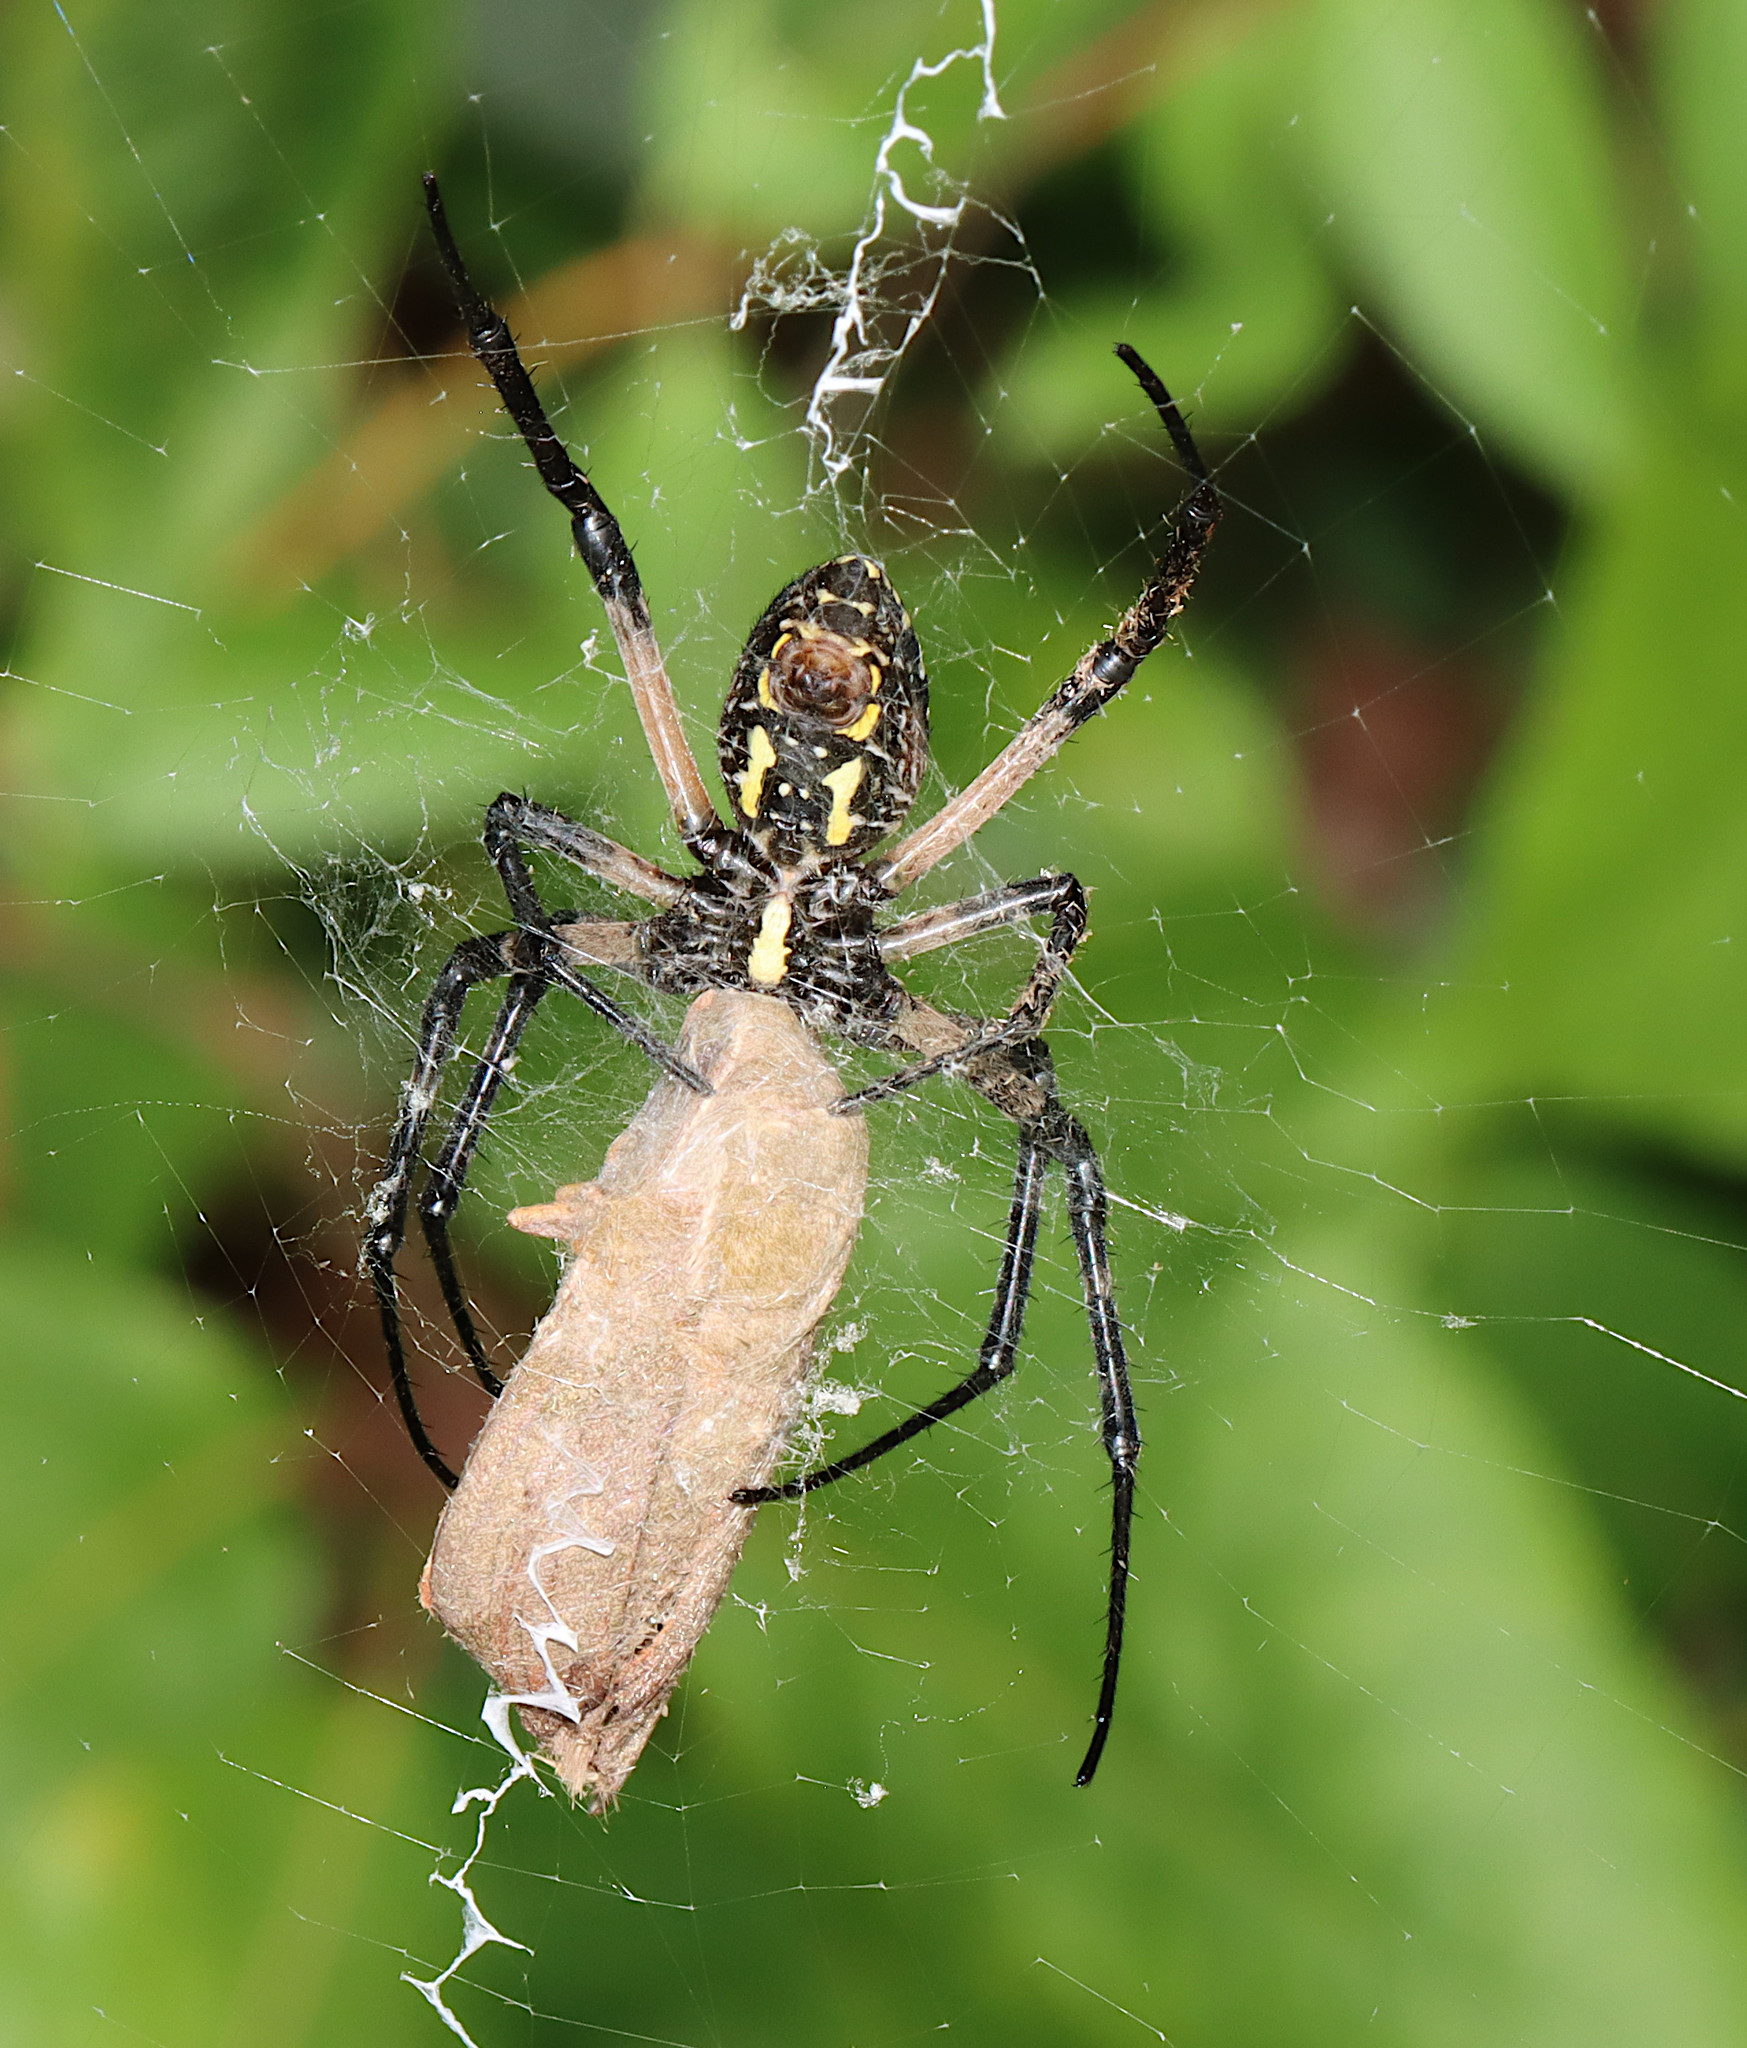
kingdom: Animalia
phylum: Arthropoda
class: Arachnida
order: Araneae
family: Araneidae
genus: Argiope
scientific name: Argiope aurantia
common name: Orb weavers
